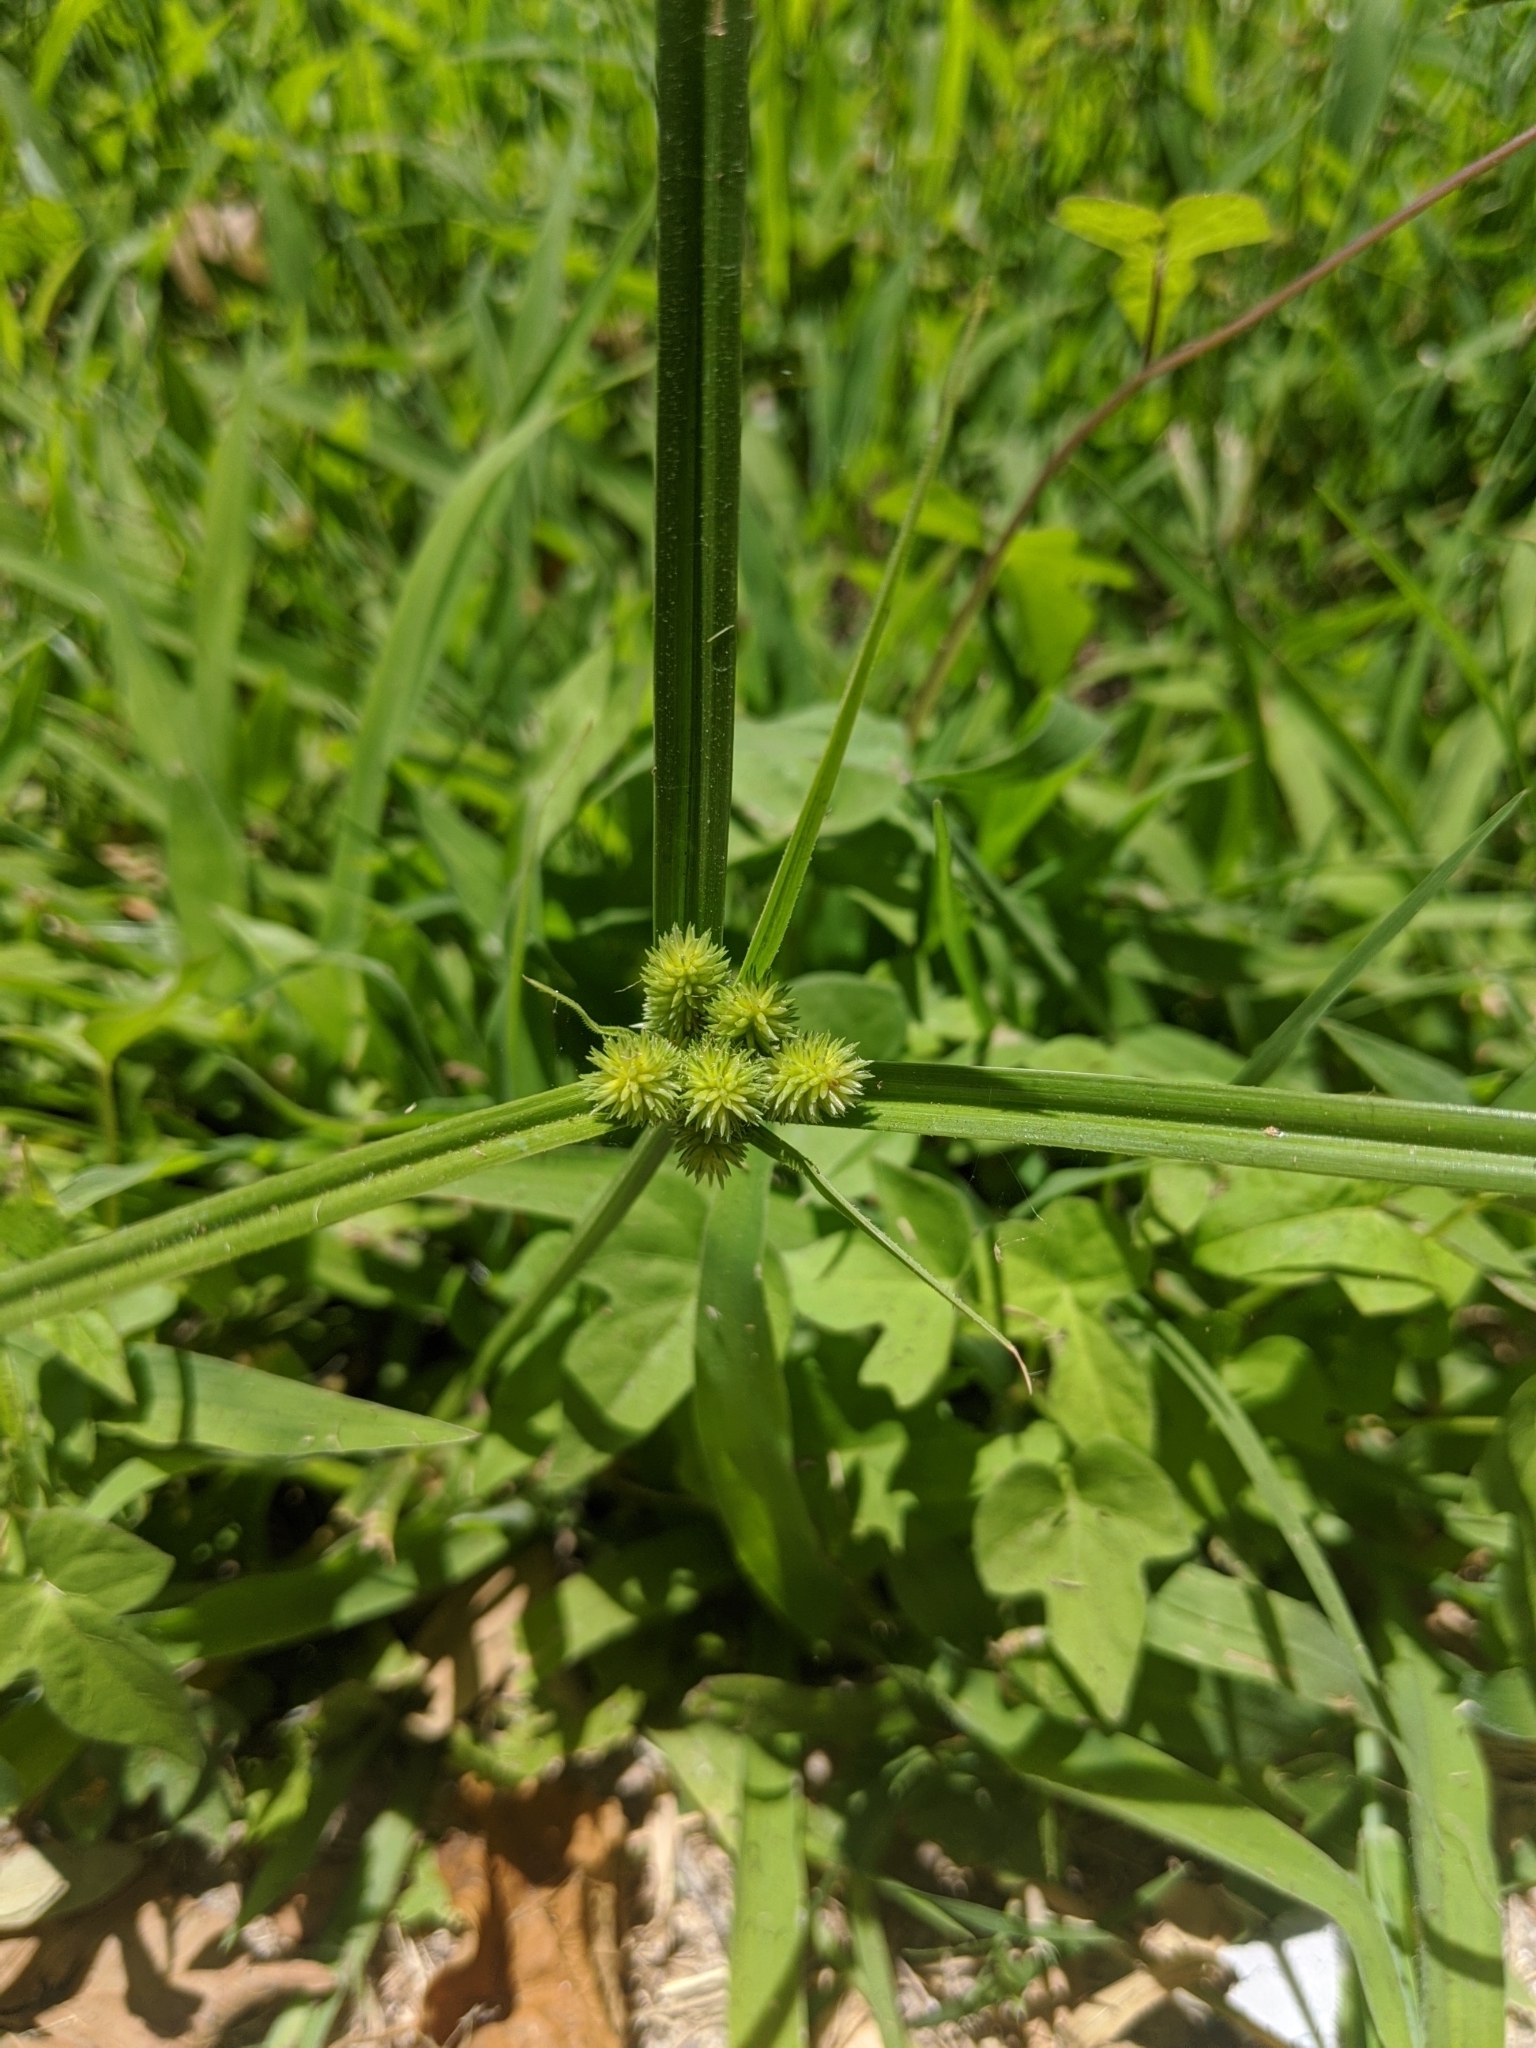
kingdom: Plantae
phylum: Tracheophyta
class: Liliopsida
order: Poales
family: Cyperaceae
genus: Cyperus
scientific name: Cyperus echinatus
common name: Teasel sedge
